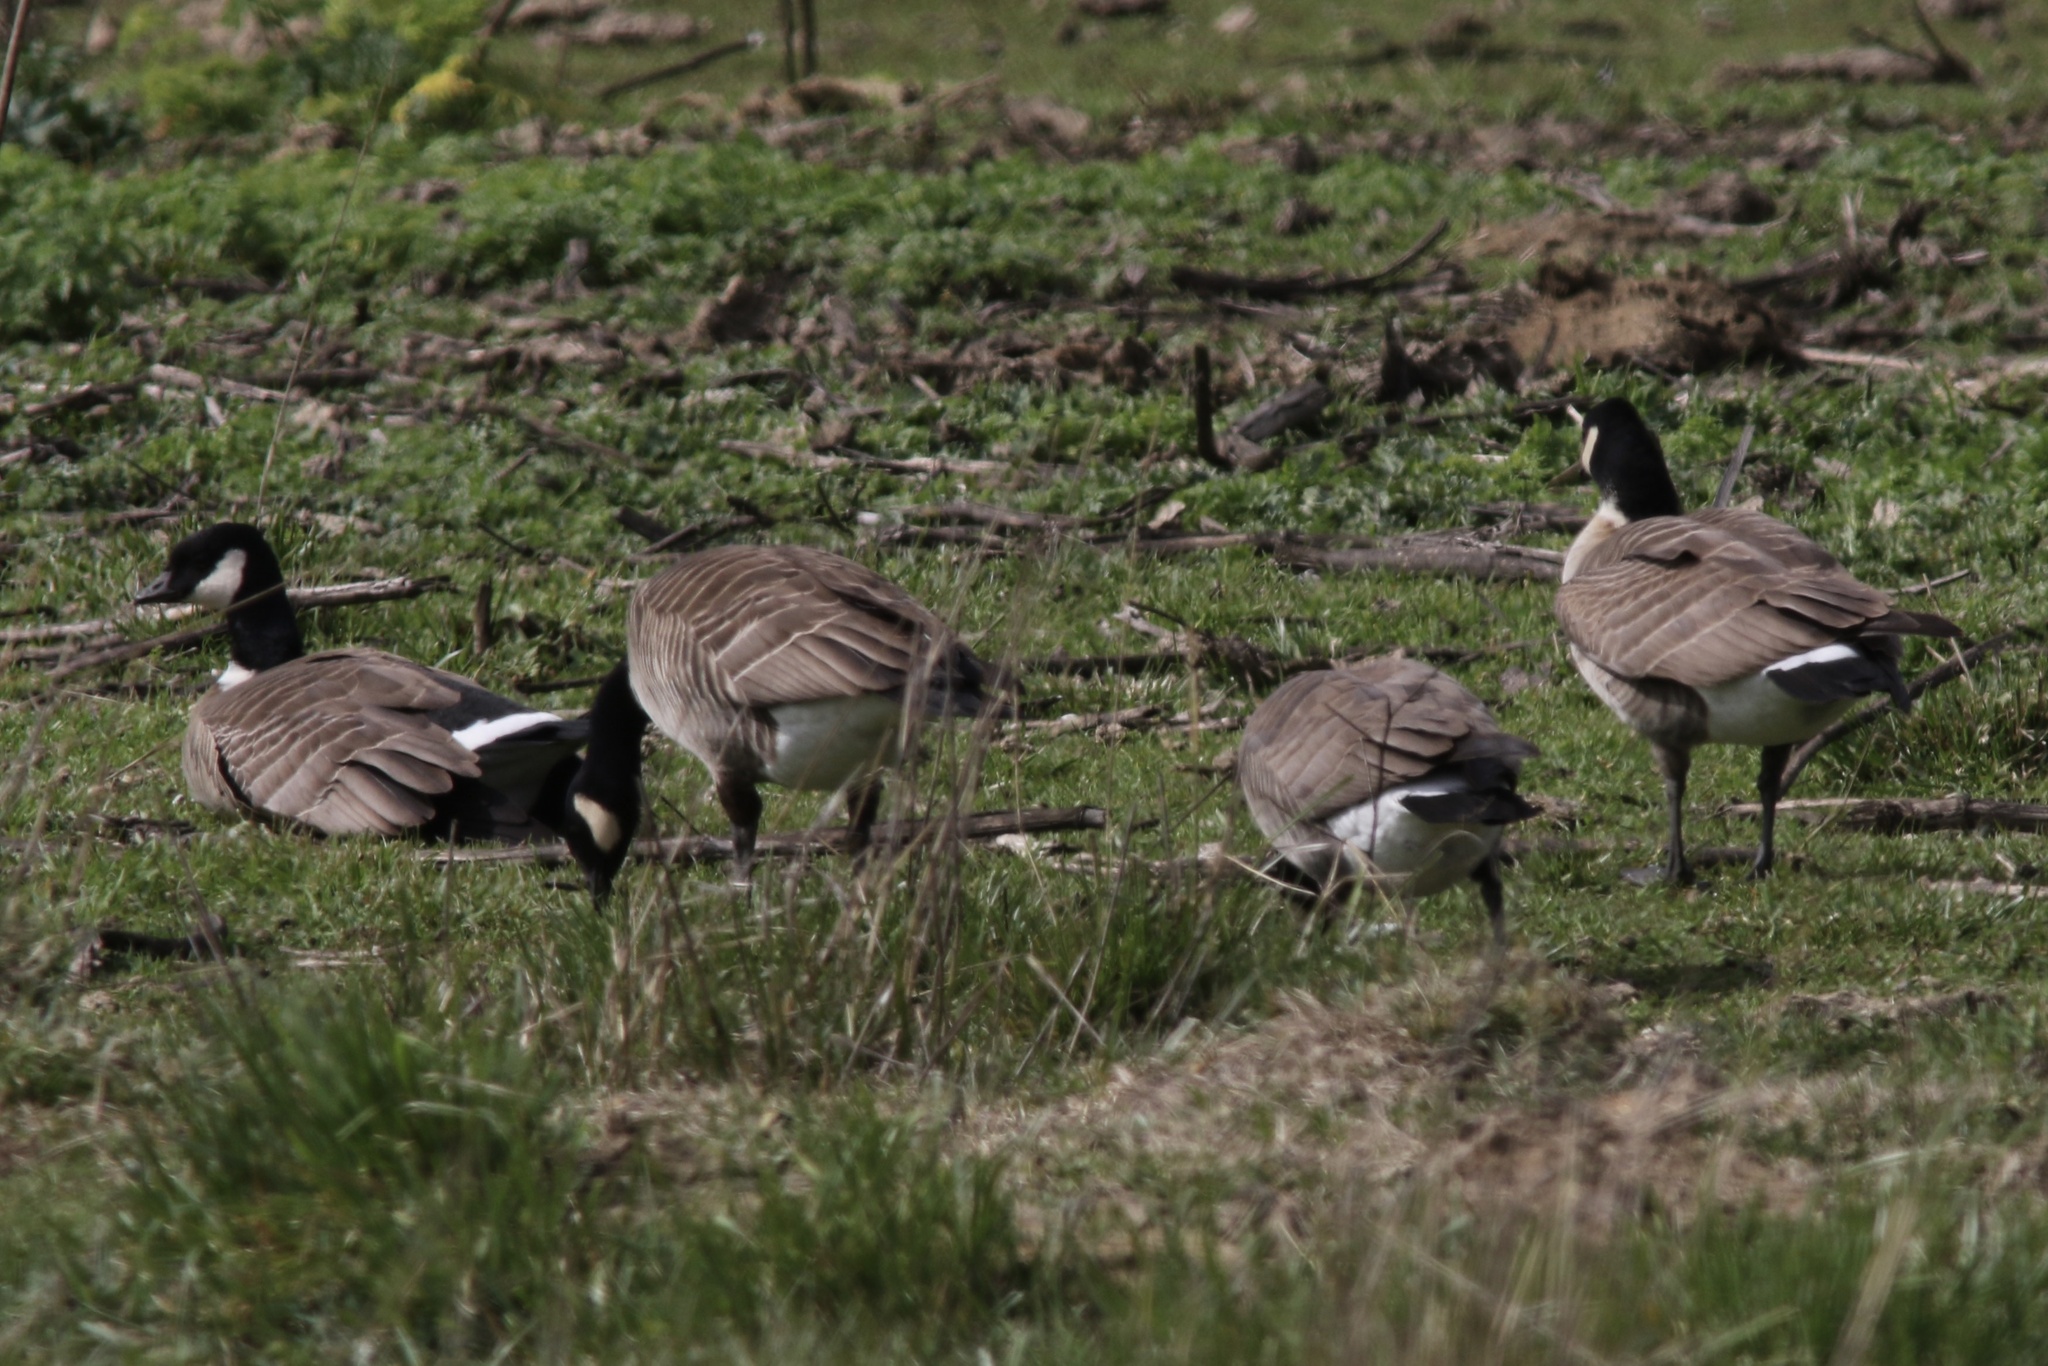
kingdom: Animalia
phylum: Chordata
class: Aves
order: Anseriformes
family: Anatidae
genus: Branta
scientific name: Branta hutchinsii
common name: Cackling goose
